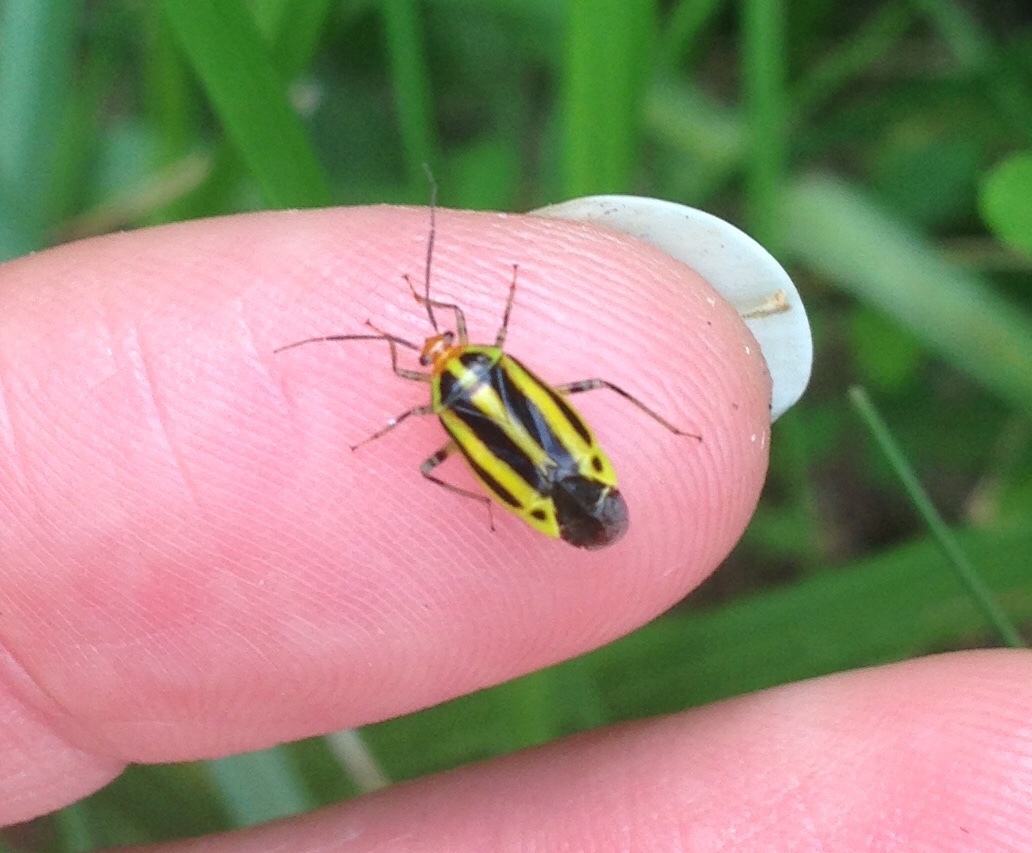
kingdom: Animalia
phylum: Arthropoda
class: Insecta
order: Hemiptera
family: Miridae
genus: Poecilocapsus
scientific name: Poecilocapsus lineatus
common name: Four-lined plant bug
